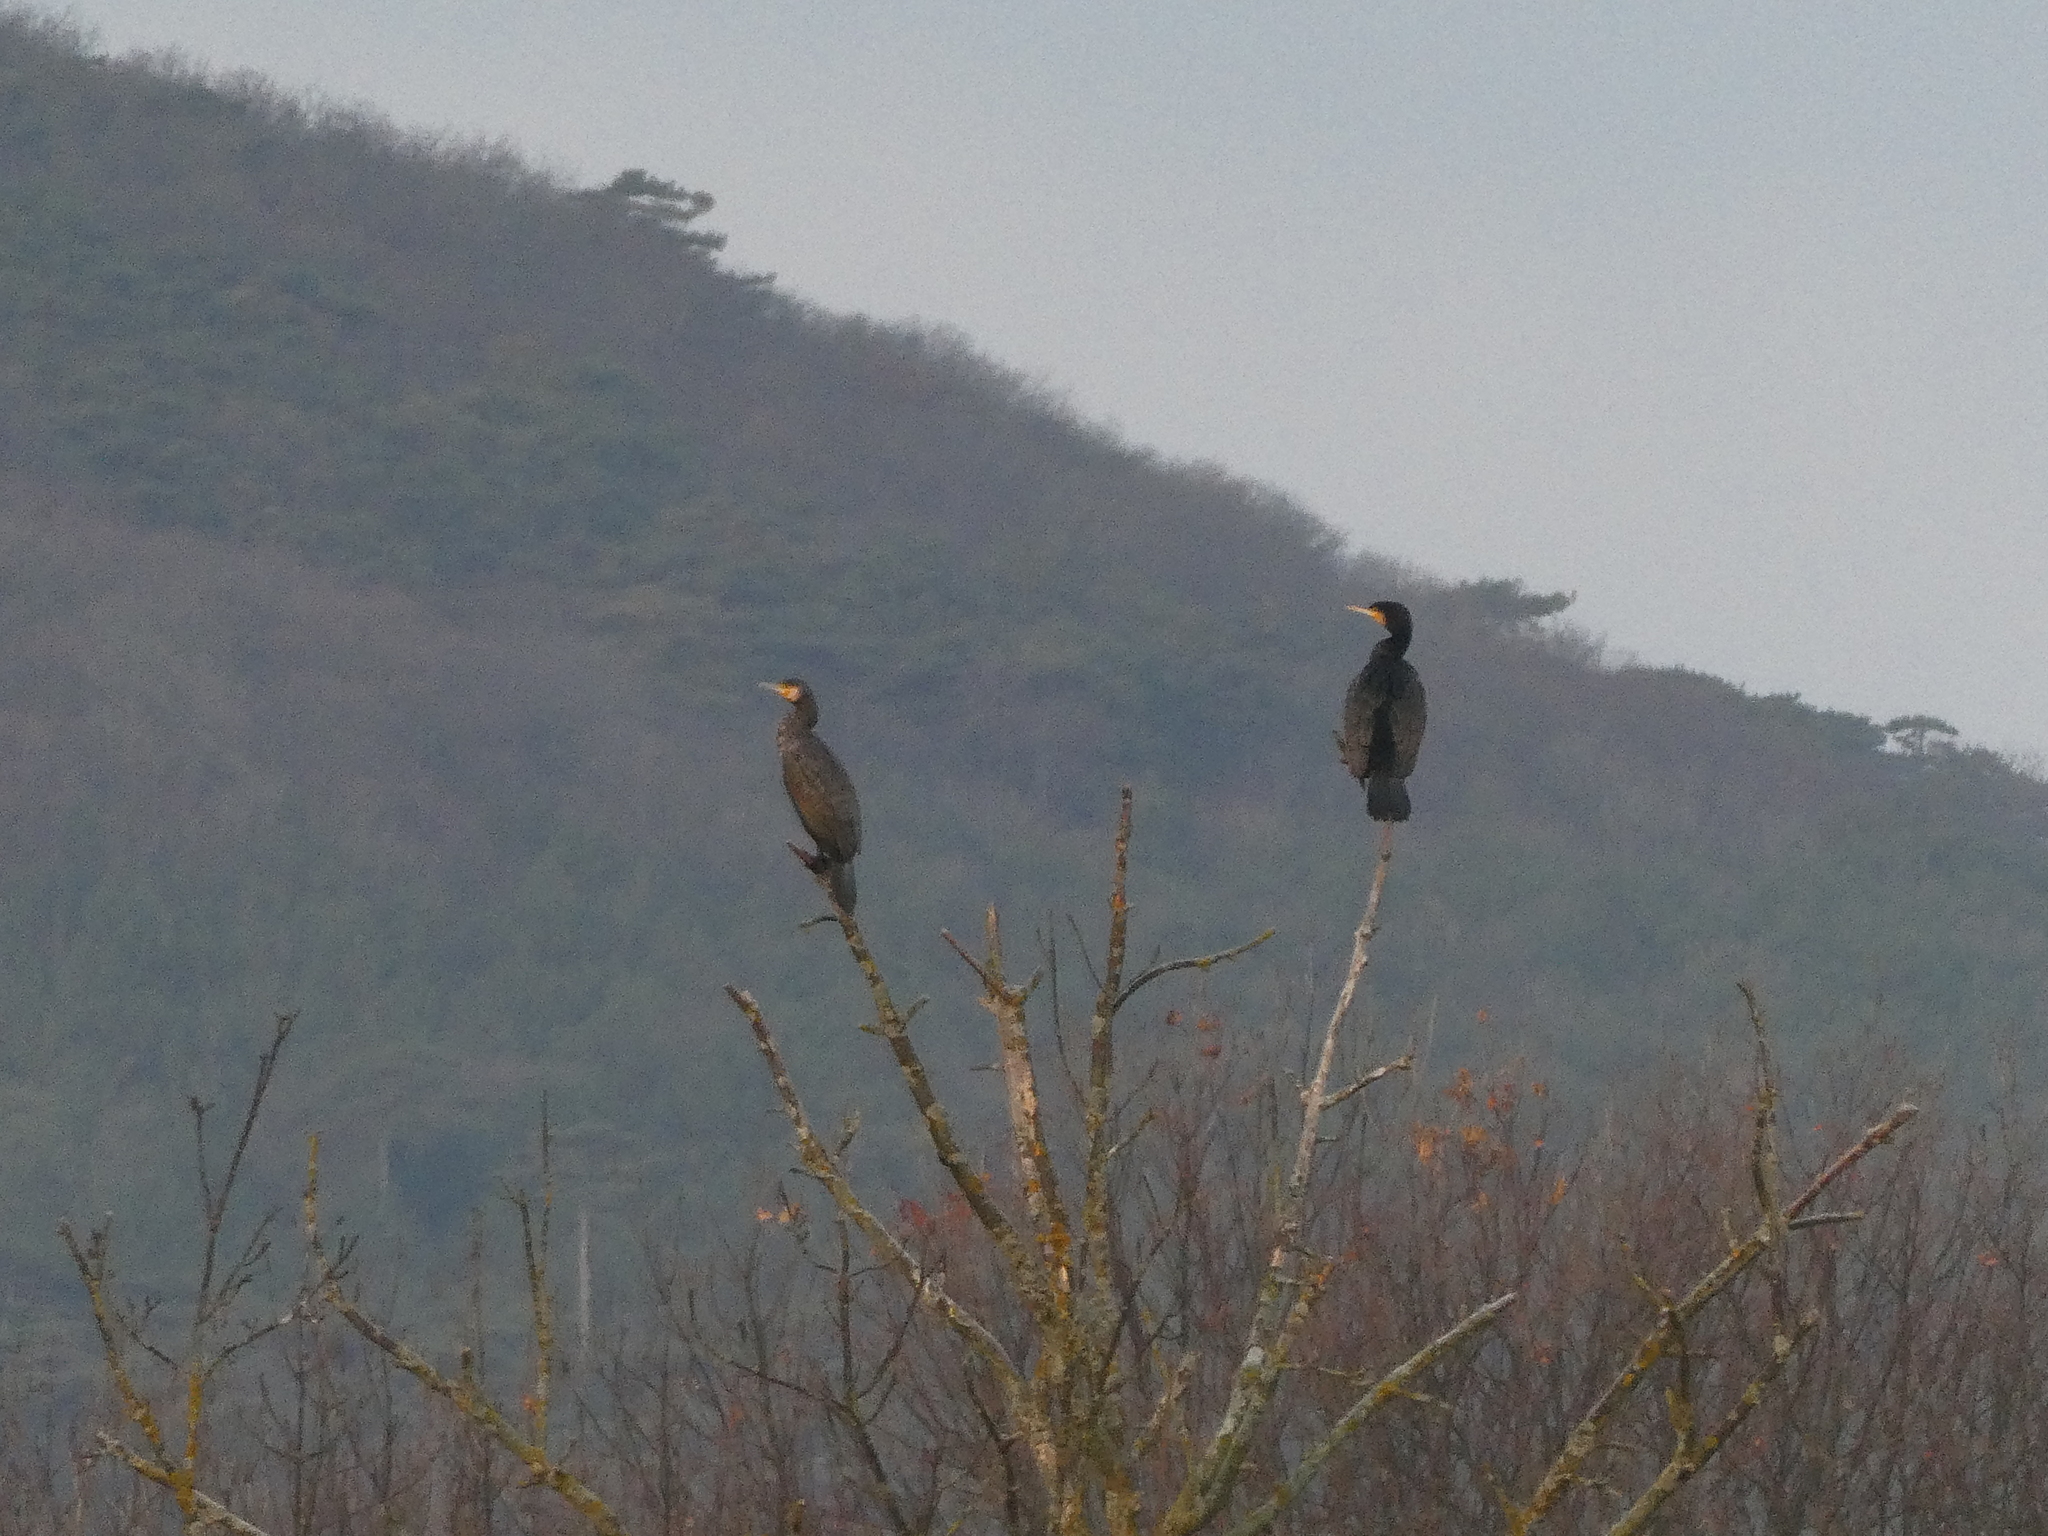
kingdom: Animalia
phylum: Chordata
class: Aves
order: Suliformes
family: Phalacrocoracidae
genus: Phalacrocorax
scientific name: Phalacrocorax carbo
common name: Great cormorant
